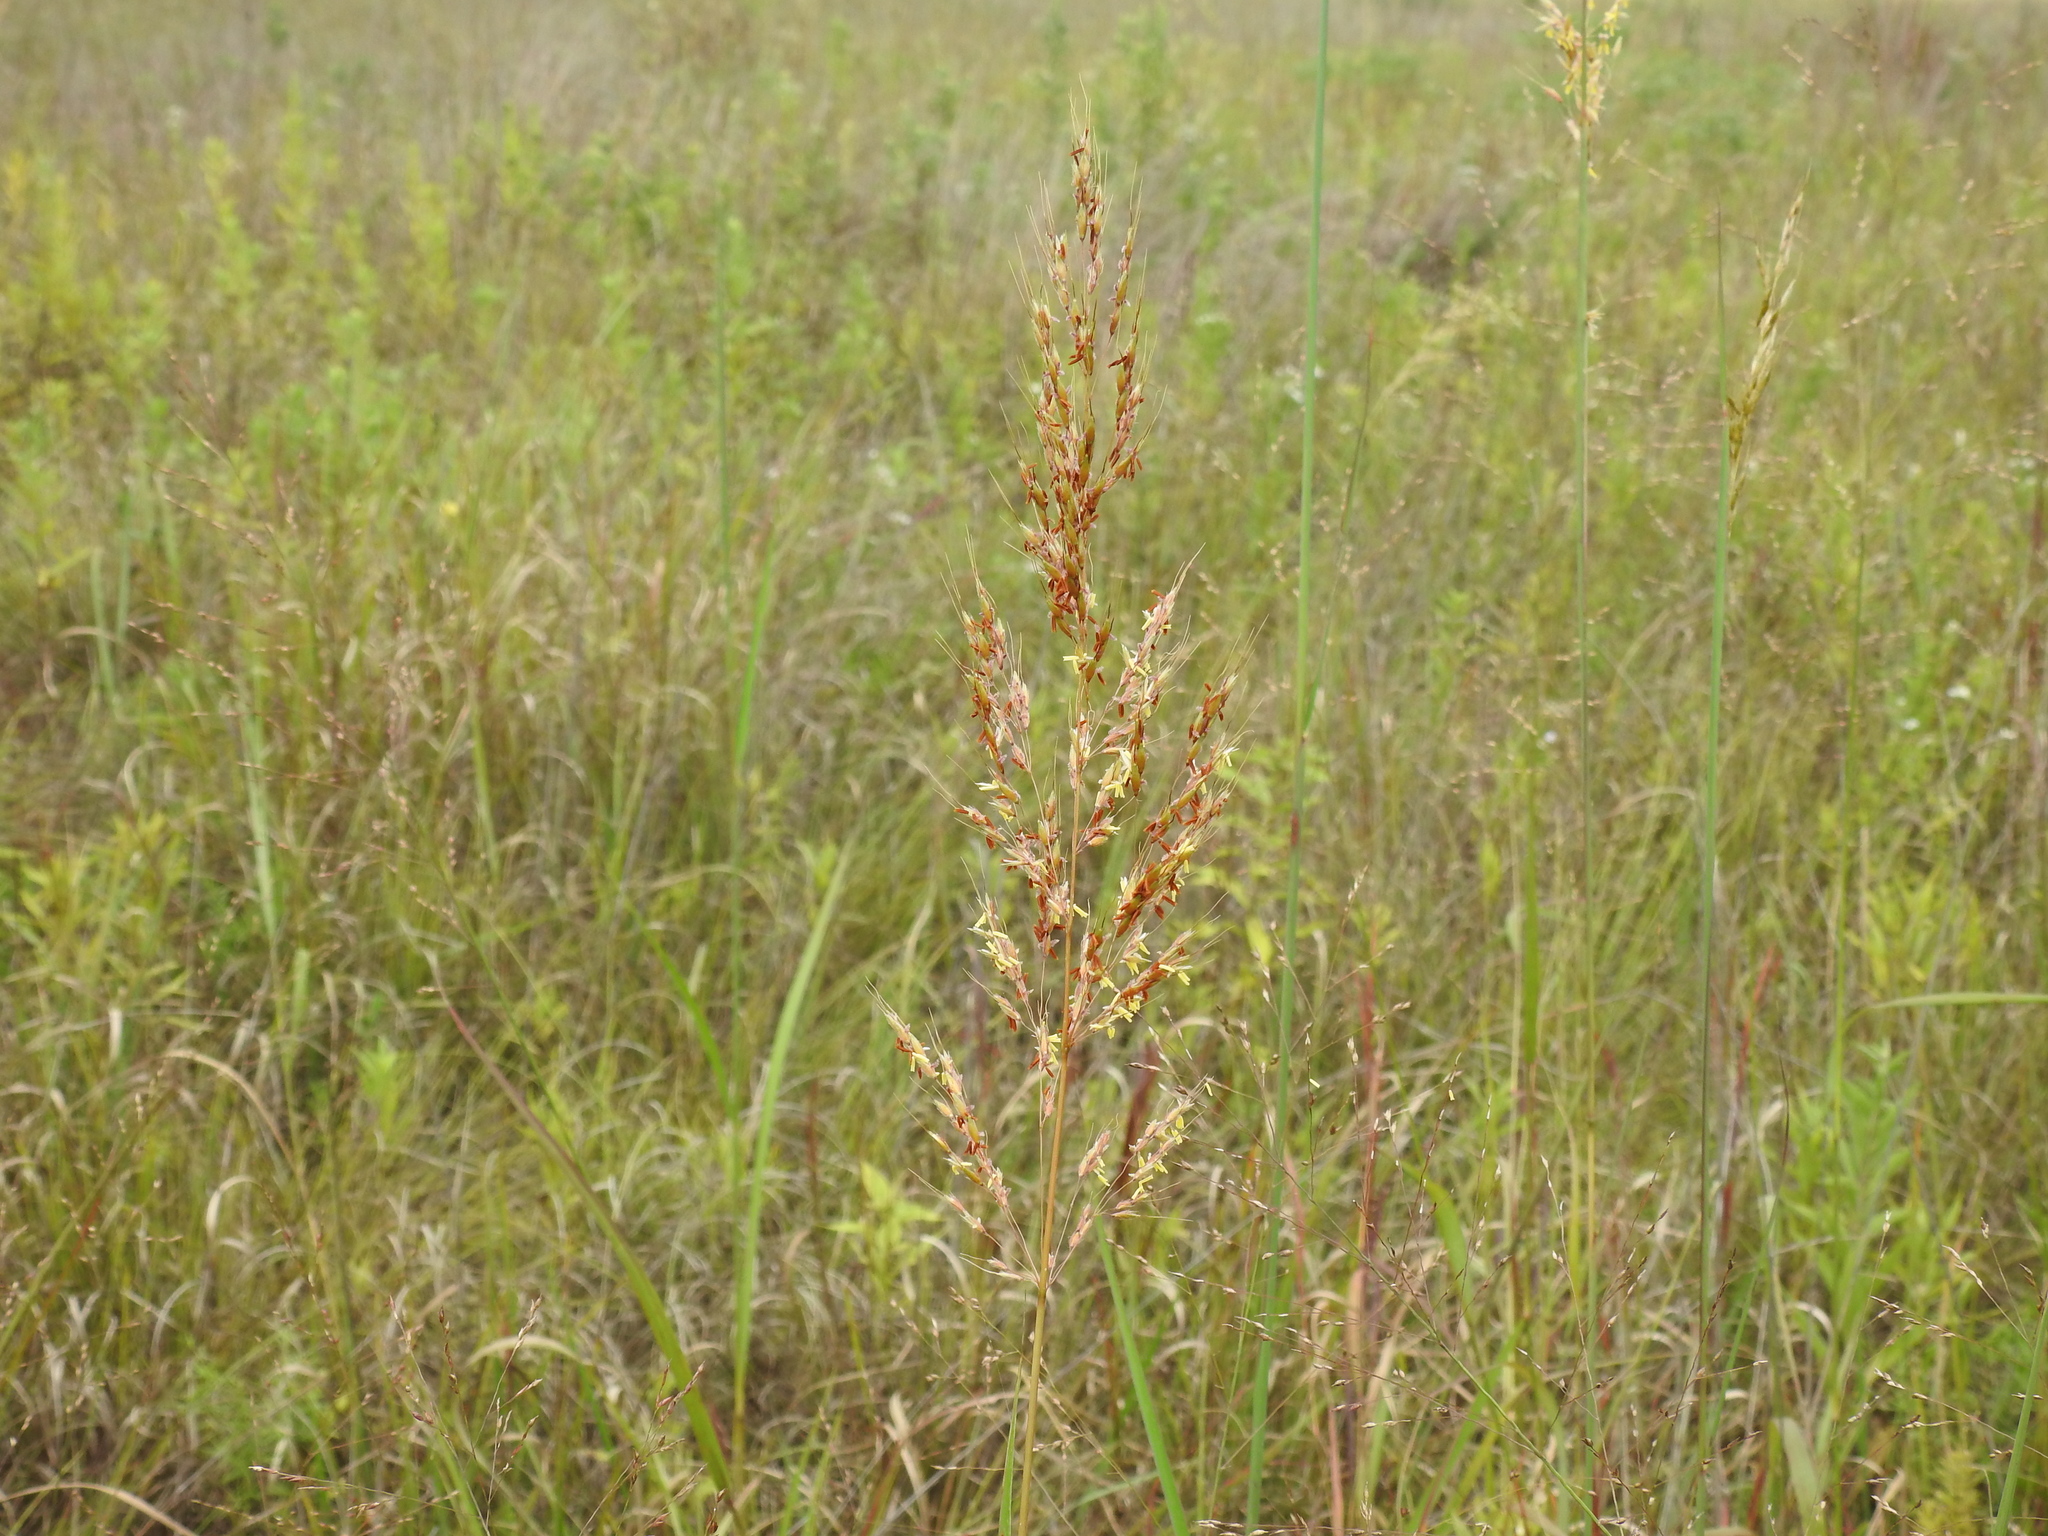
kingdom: Plantae
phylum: Tracheophyta
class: Liliopsida
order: Poales
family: Poaceae
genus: Sorghastrum
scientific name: Sorghastrum nutans
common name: Indian grass
